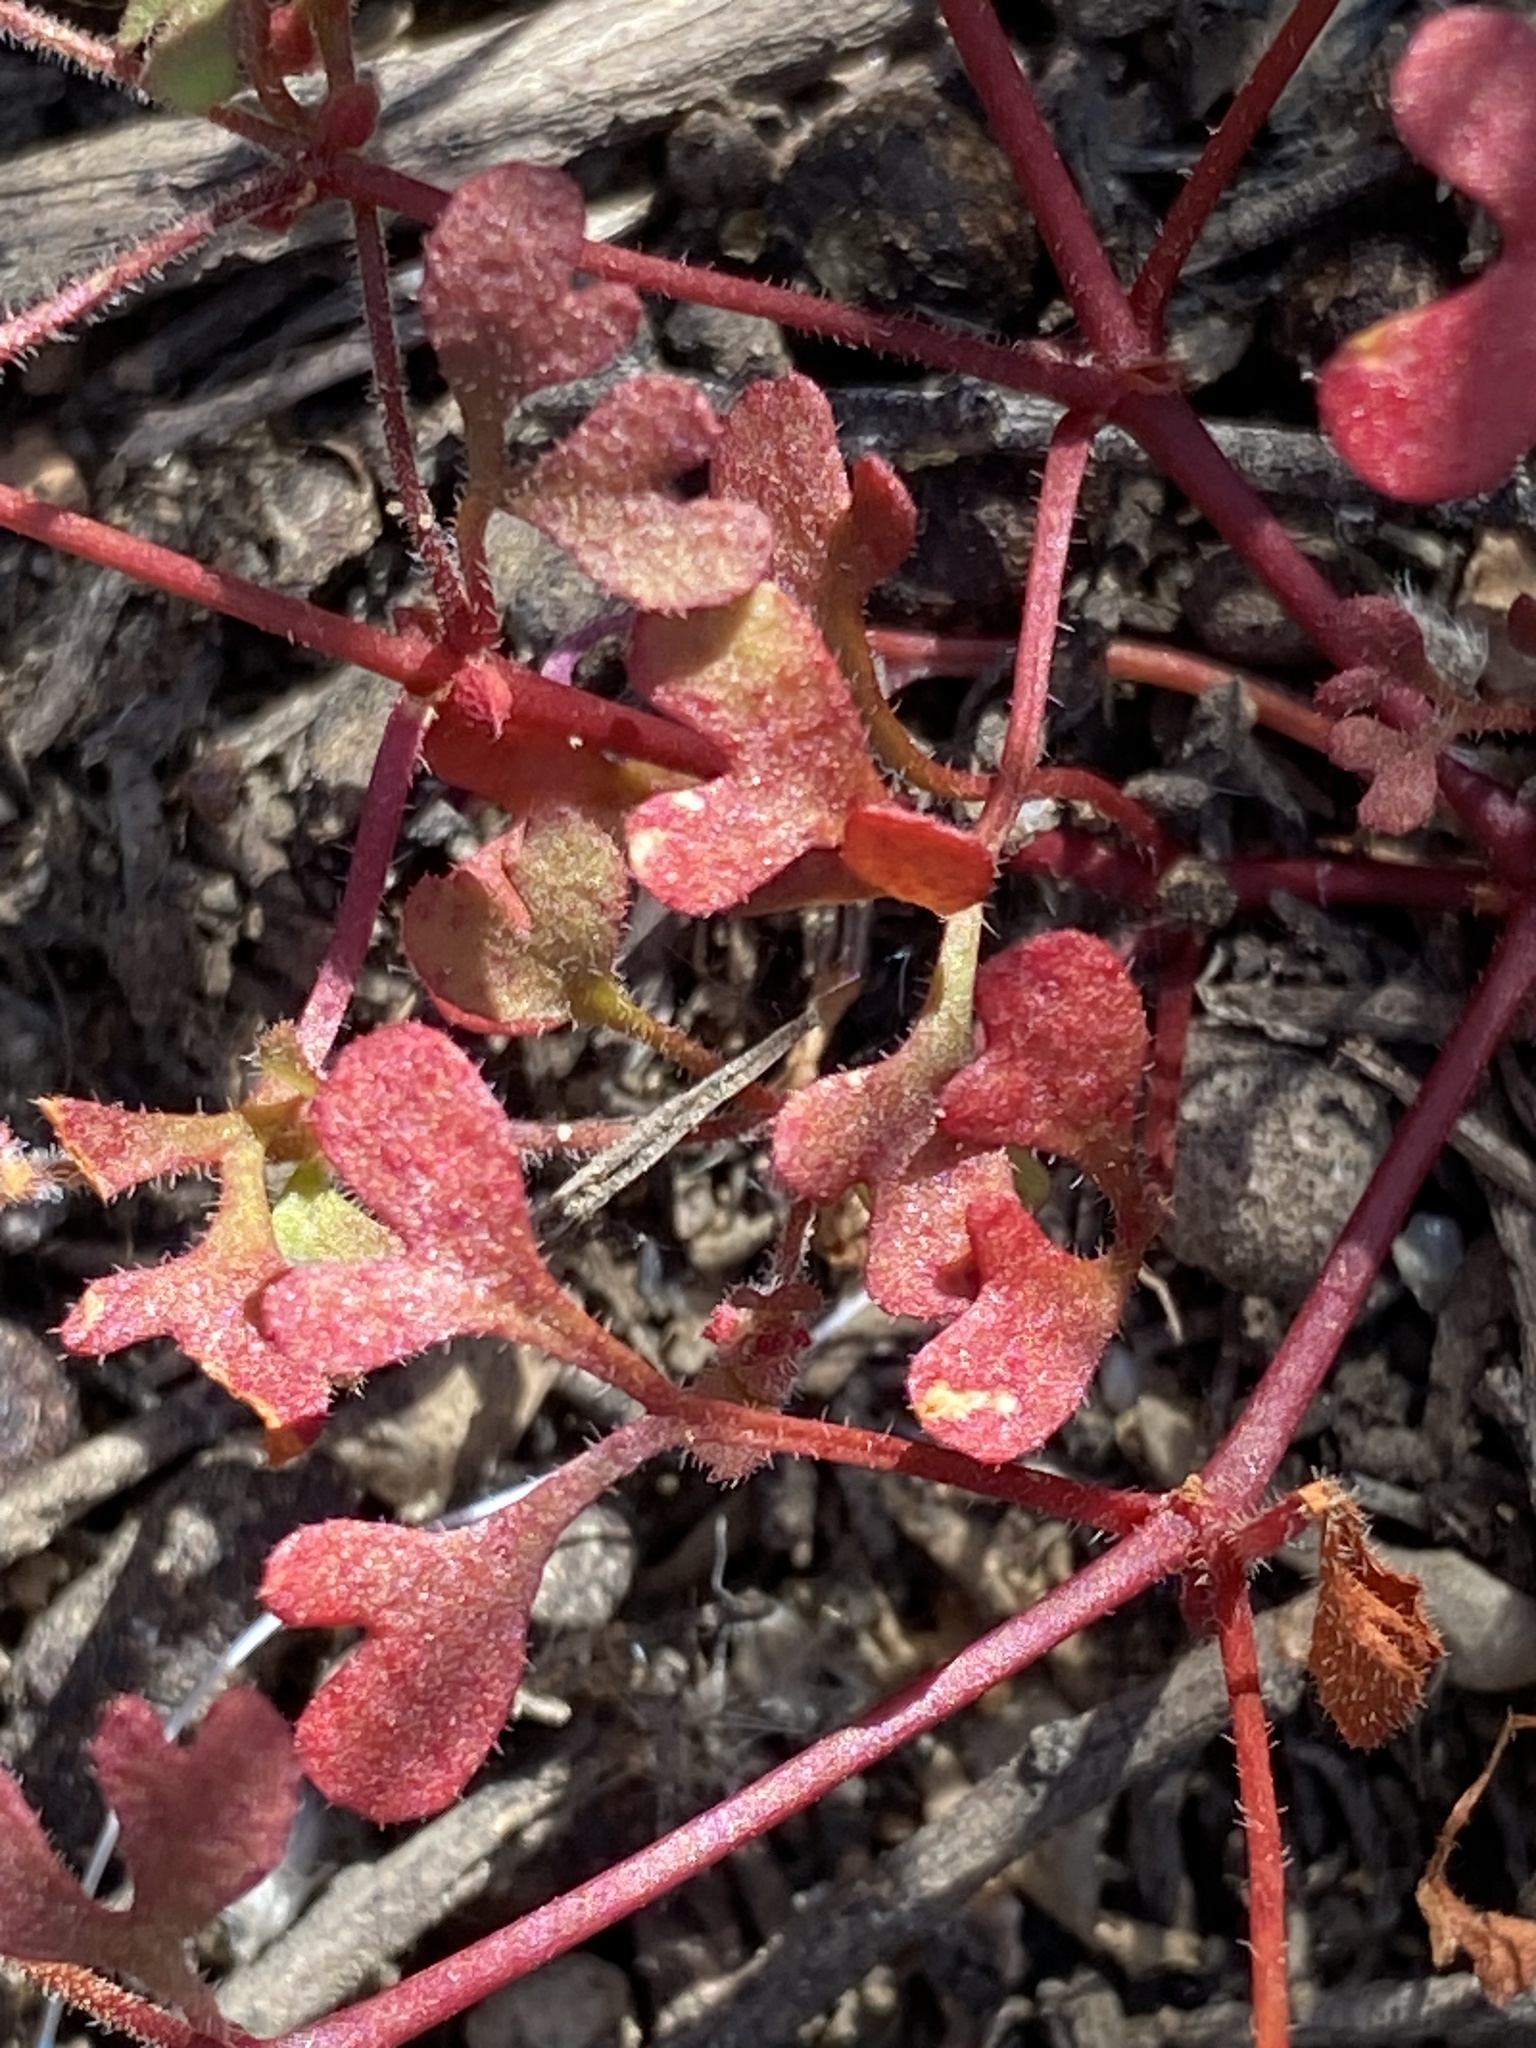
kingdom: Plantae
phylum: Tracheophyta
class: Magnoliopsida
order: Caryophyllales
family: Polygonaceae
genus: Pterostegia
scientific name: Pterostegia drymarioides
